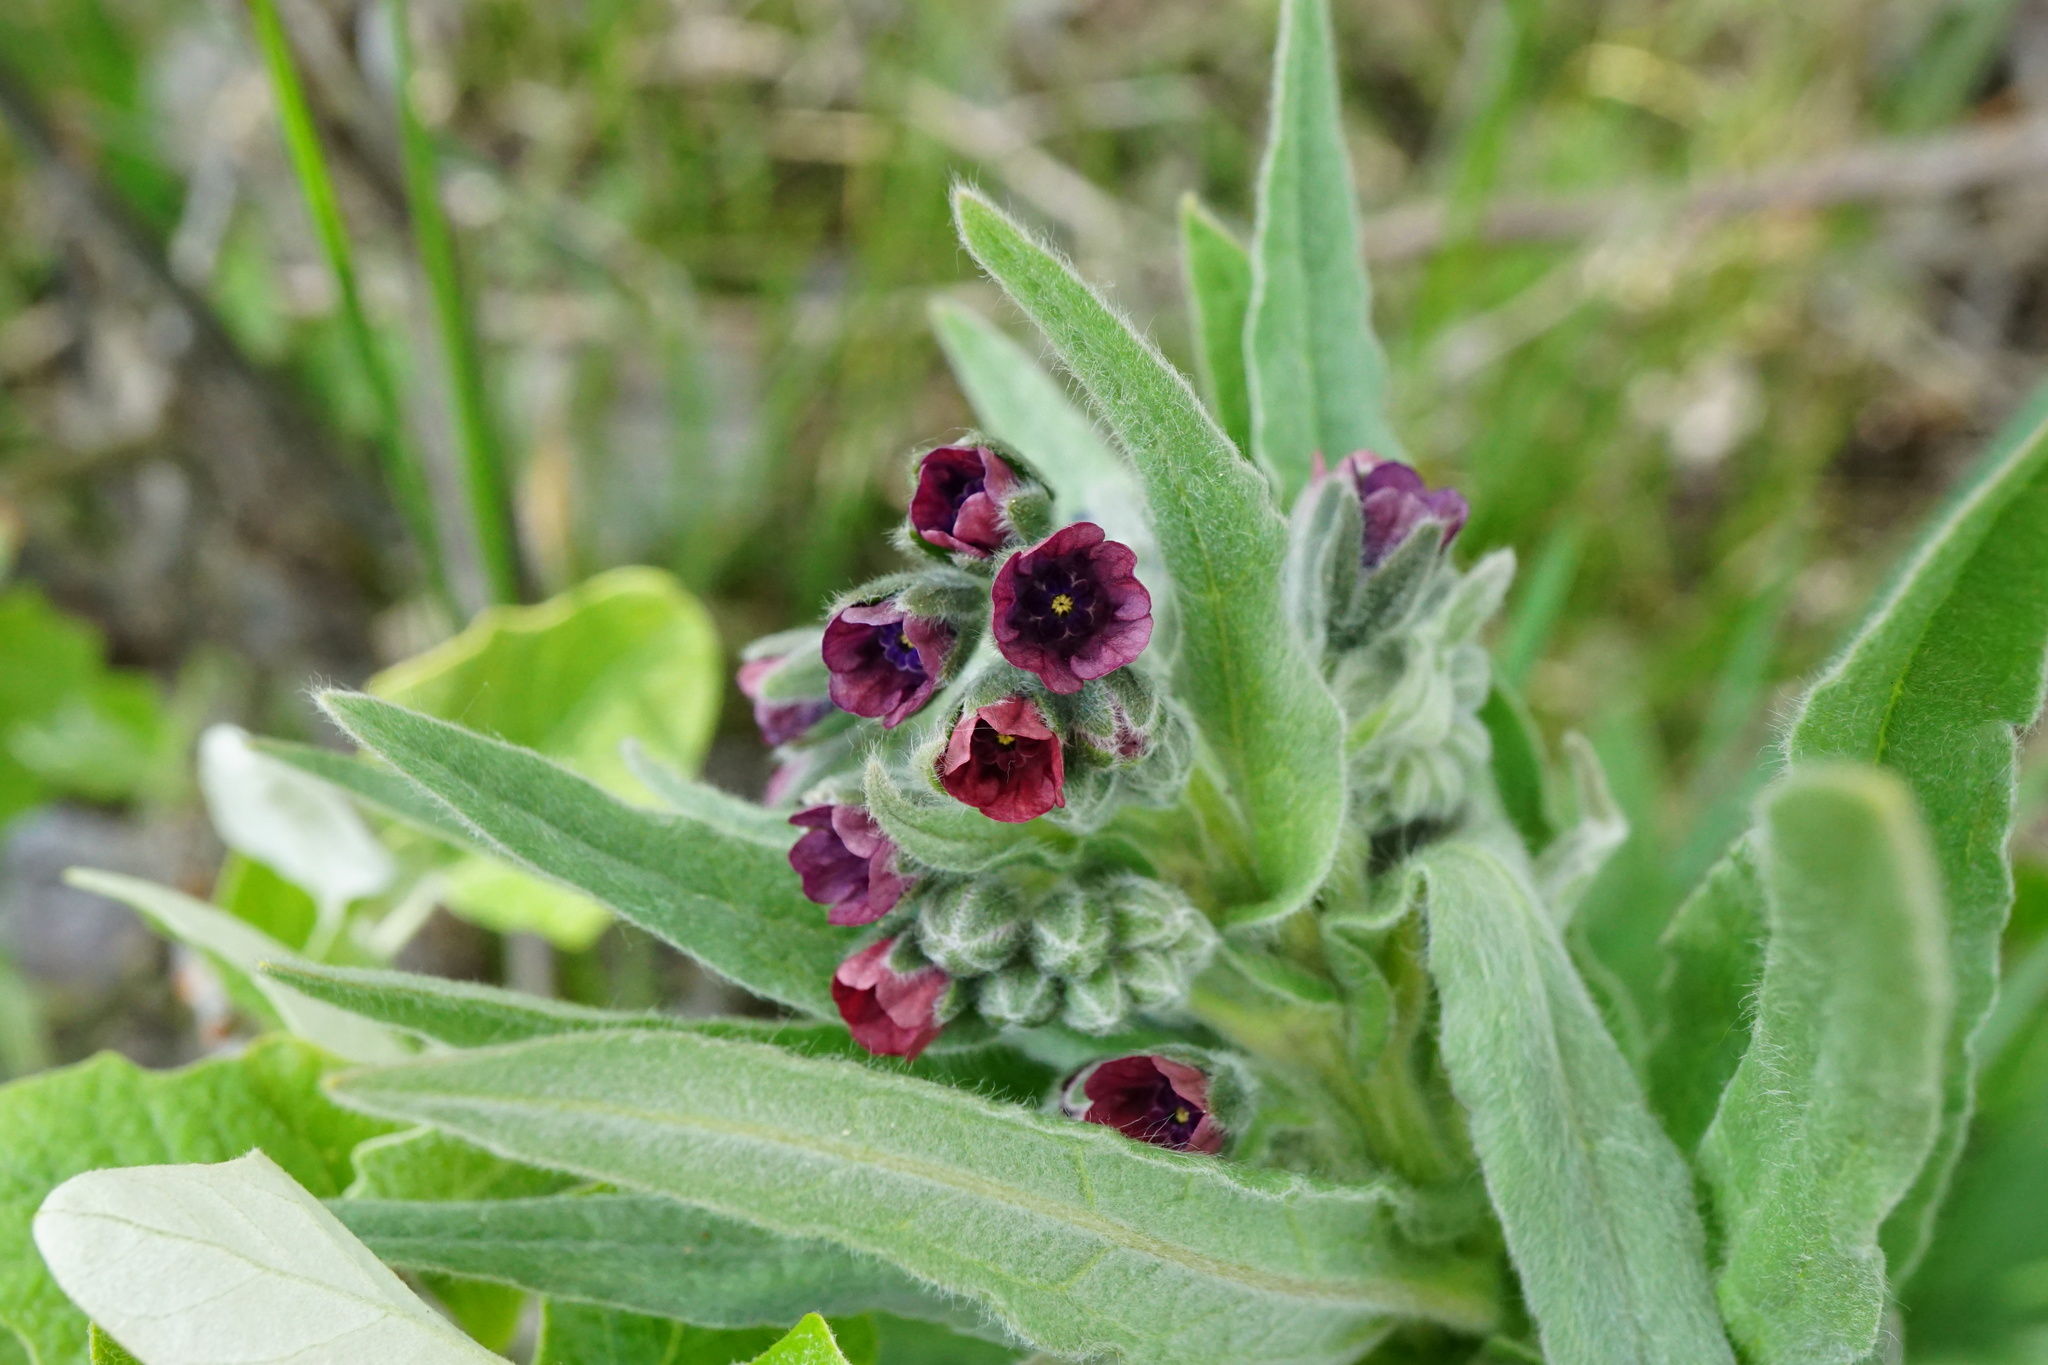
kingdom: Plantae
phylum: Tracheophyta
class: Magnoliopsida
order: Boraginales
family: Boraginaceae
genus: Cynoglossum
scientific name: Cynoglossum officinale
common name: Hound's-tongue
